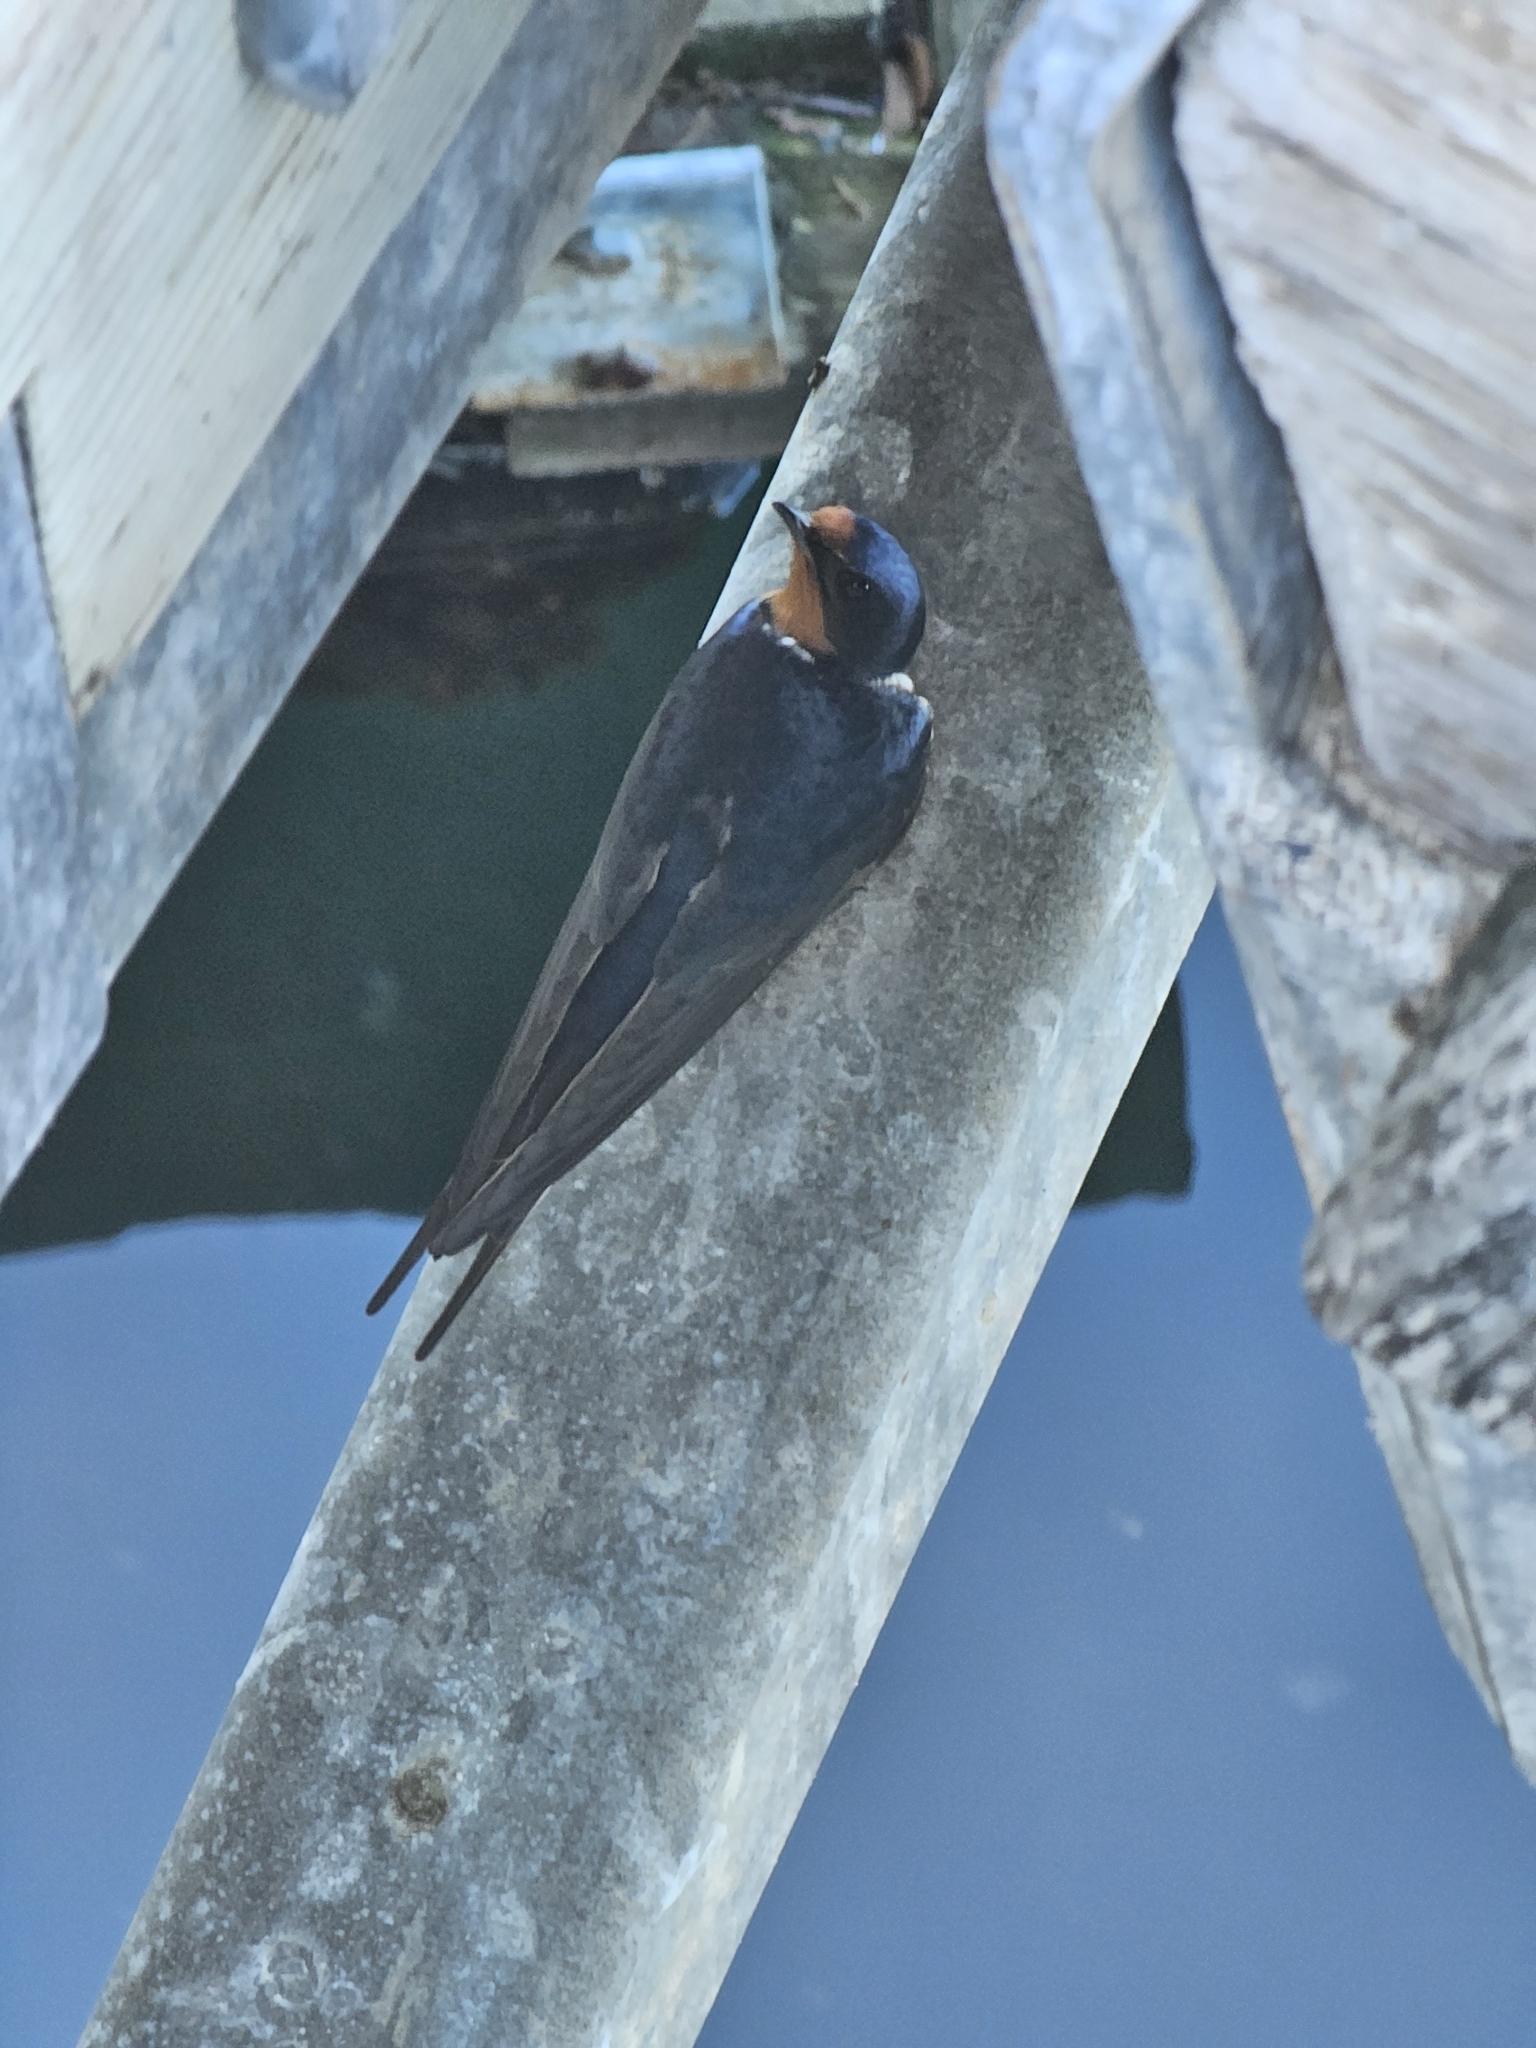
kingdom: Animalia
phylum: Chordata
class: Aves
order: Passeriformes
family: Hirundinidae
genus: Hirundo
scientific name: Hirundo rustica
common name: Barn swallow
